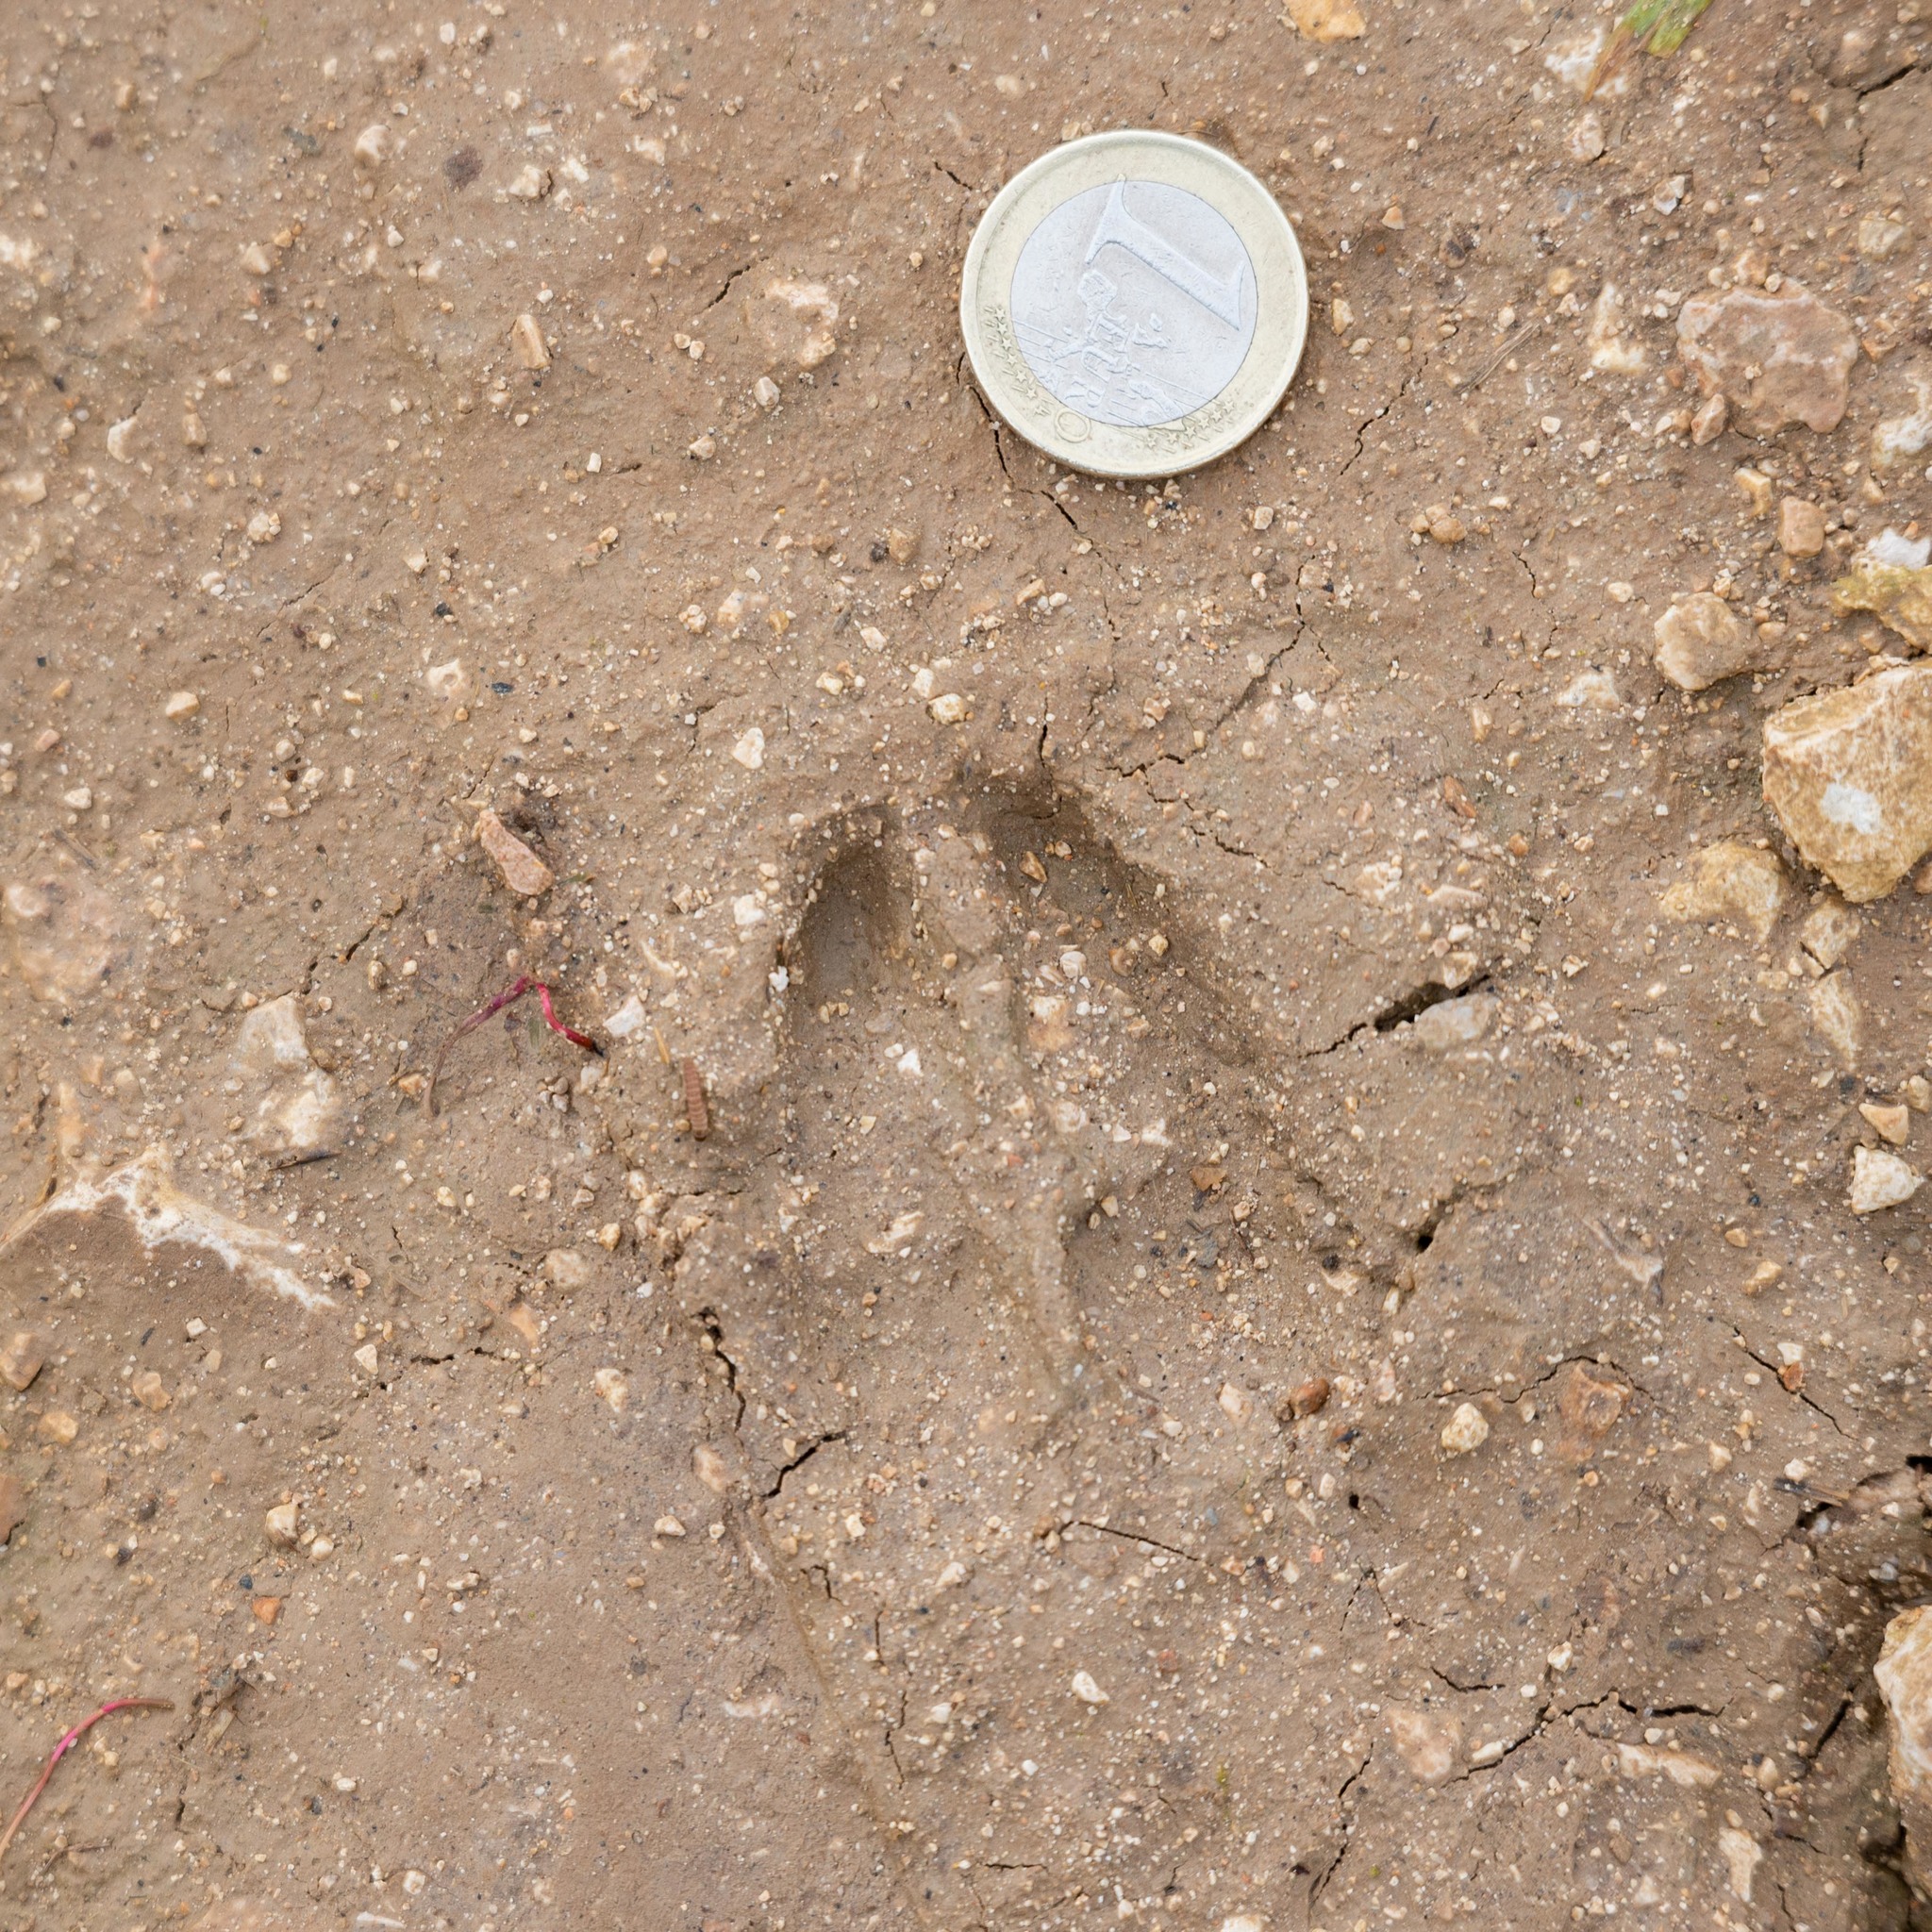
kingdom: Animalia
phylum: Chordata
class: Mammalia
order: Artiodactyla
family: Cervidae
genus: Capreolus
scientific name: Capreolus capreolus
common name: Western roe deer
